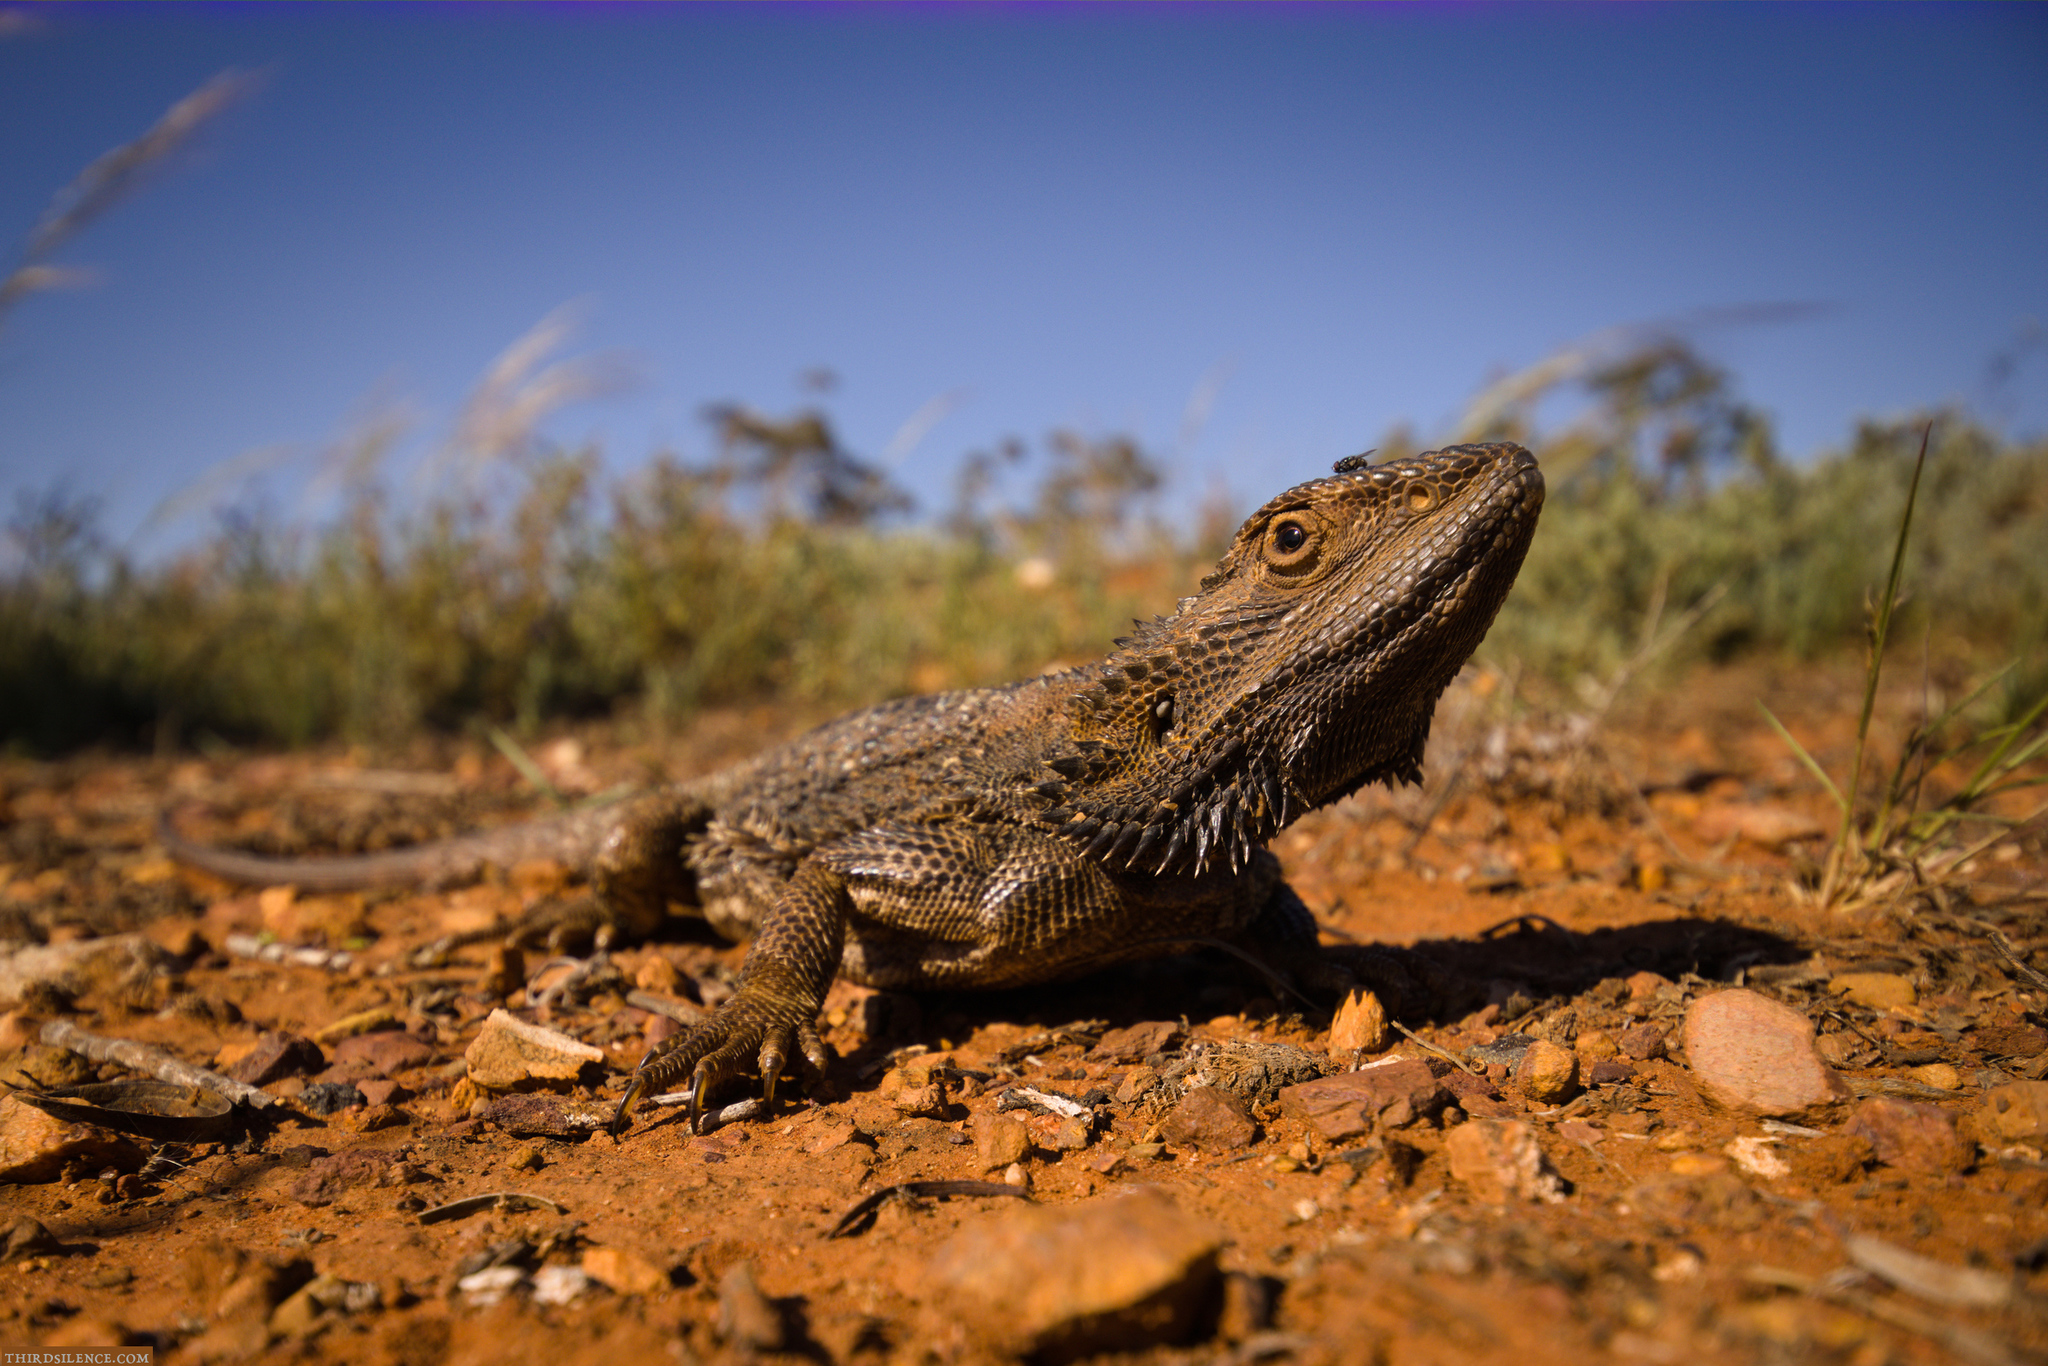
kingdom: Animalia
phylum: Chordata
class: Squamata
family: Agamidae
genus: Pogona
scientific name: Pogona barbata
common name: Bearded dragon
